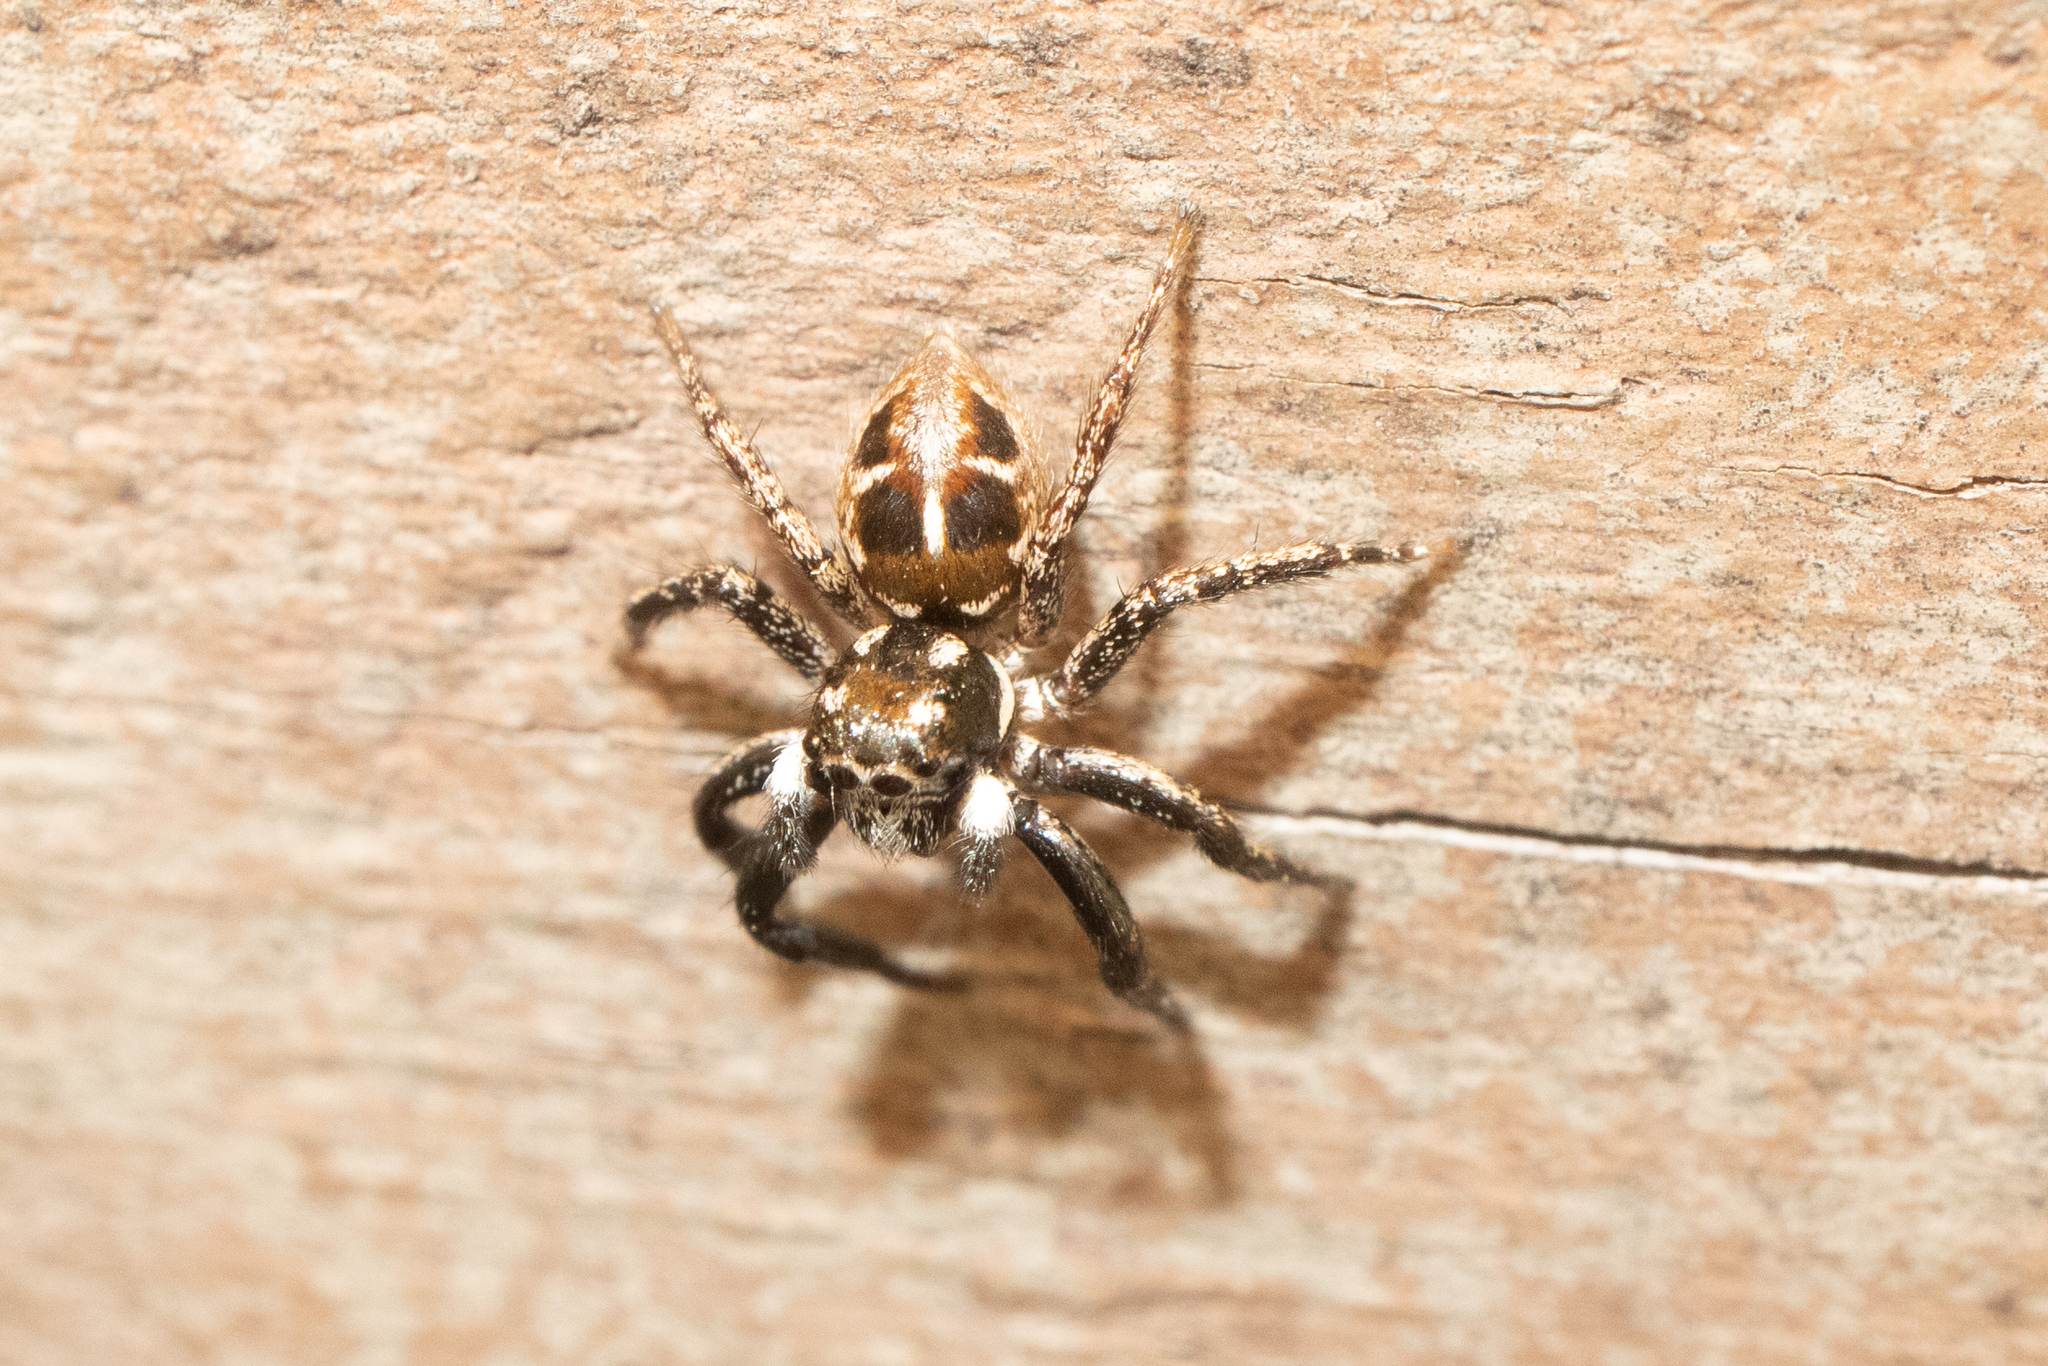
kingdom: Animalia
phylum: Arthropoda
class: Arachnida
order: Araneae
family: Salticidae
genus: Anasaitis
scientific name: Anasaitis canosa
